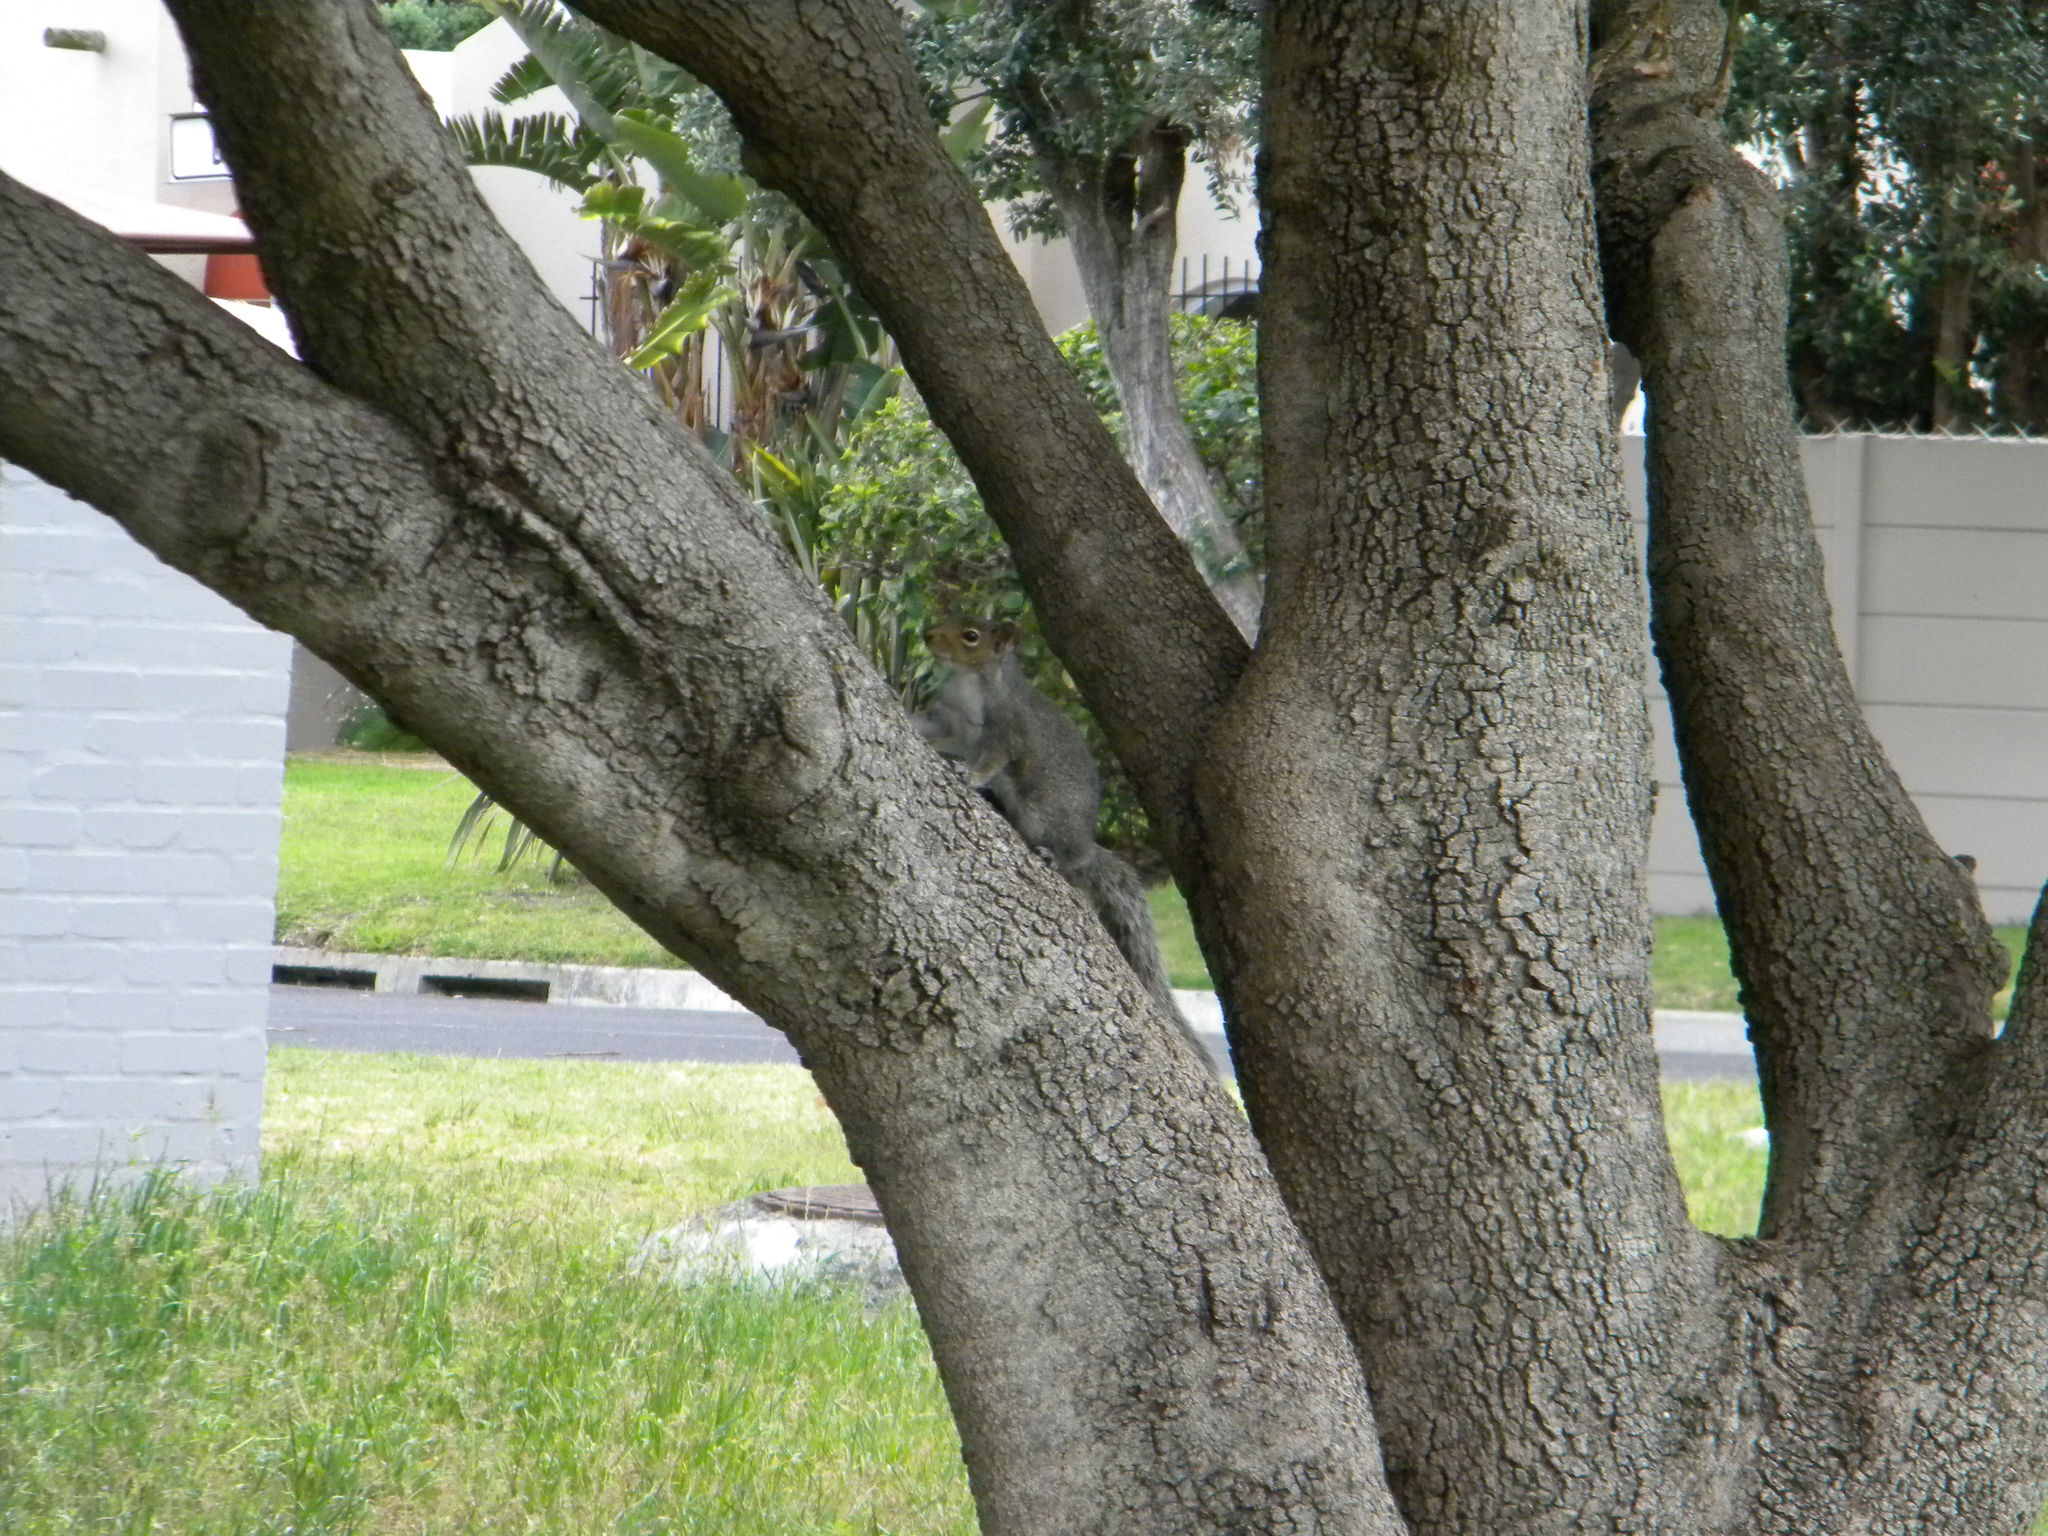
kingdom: Animalia
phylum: Chordata
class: Mammalia
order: Rodentia
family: Sciuridae
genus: Sciurus
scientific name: Sciurus carolinensis
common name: Eastern gray squirrel
